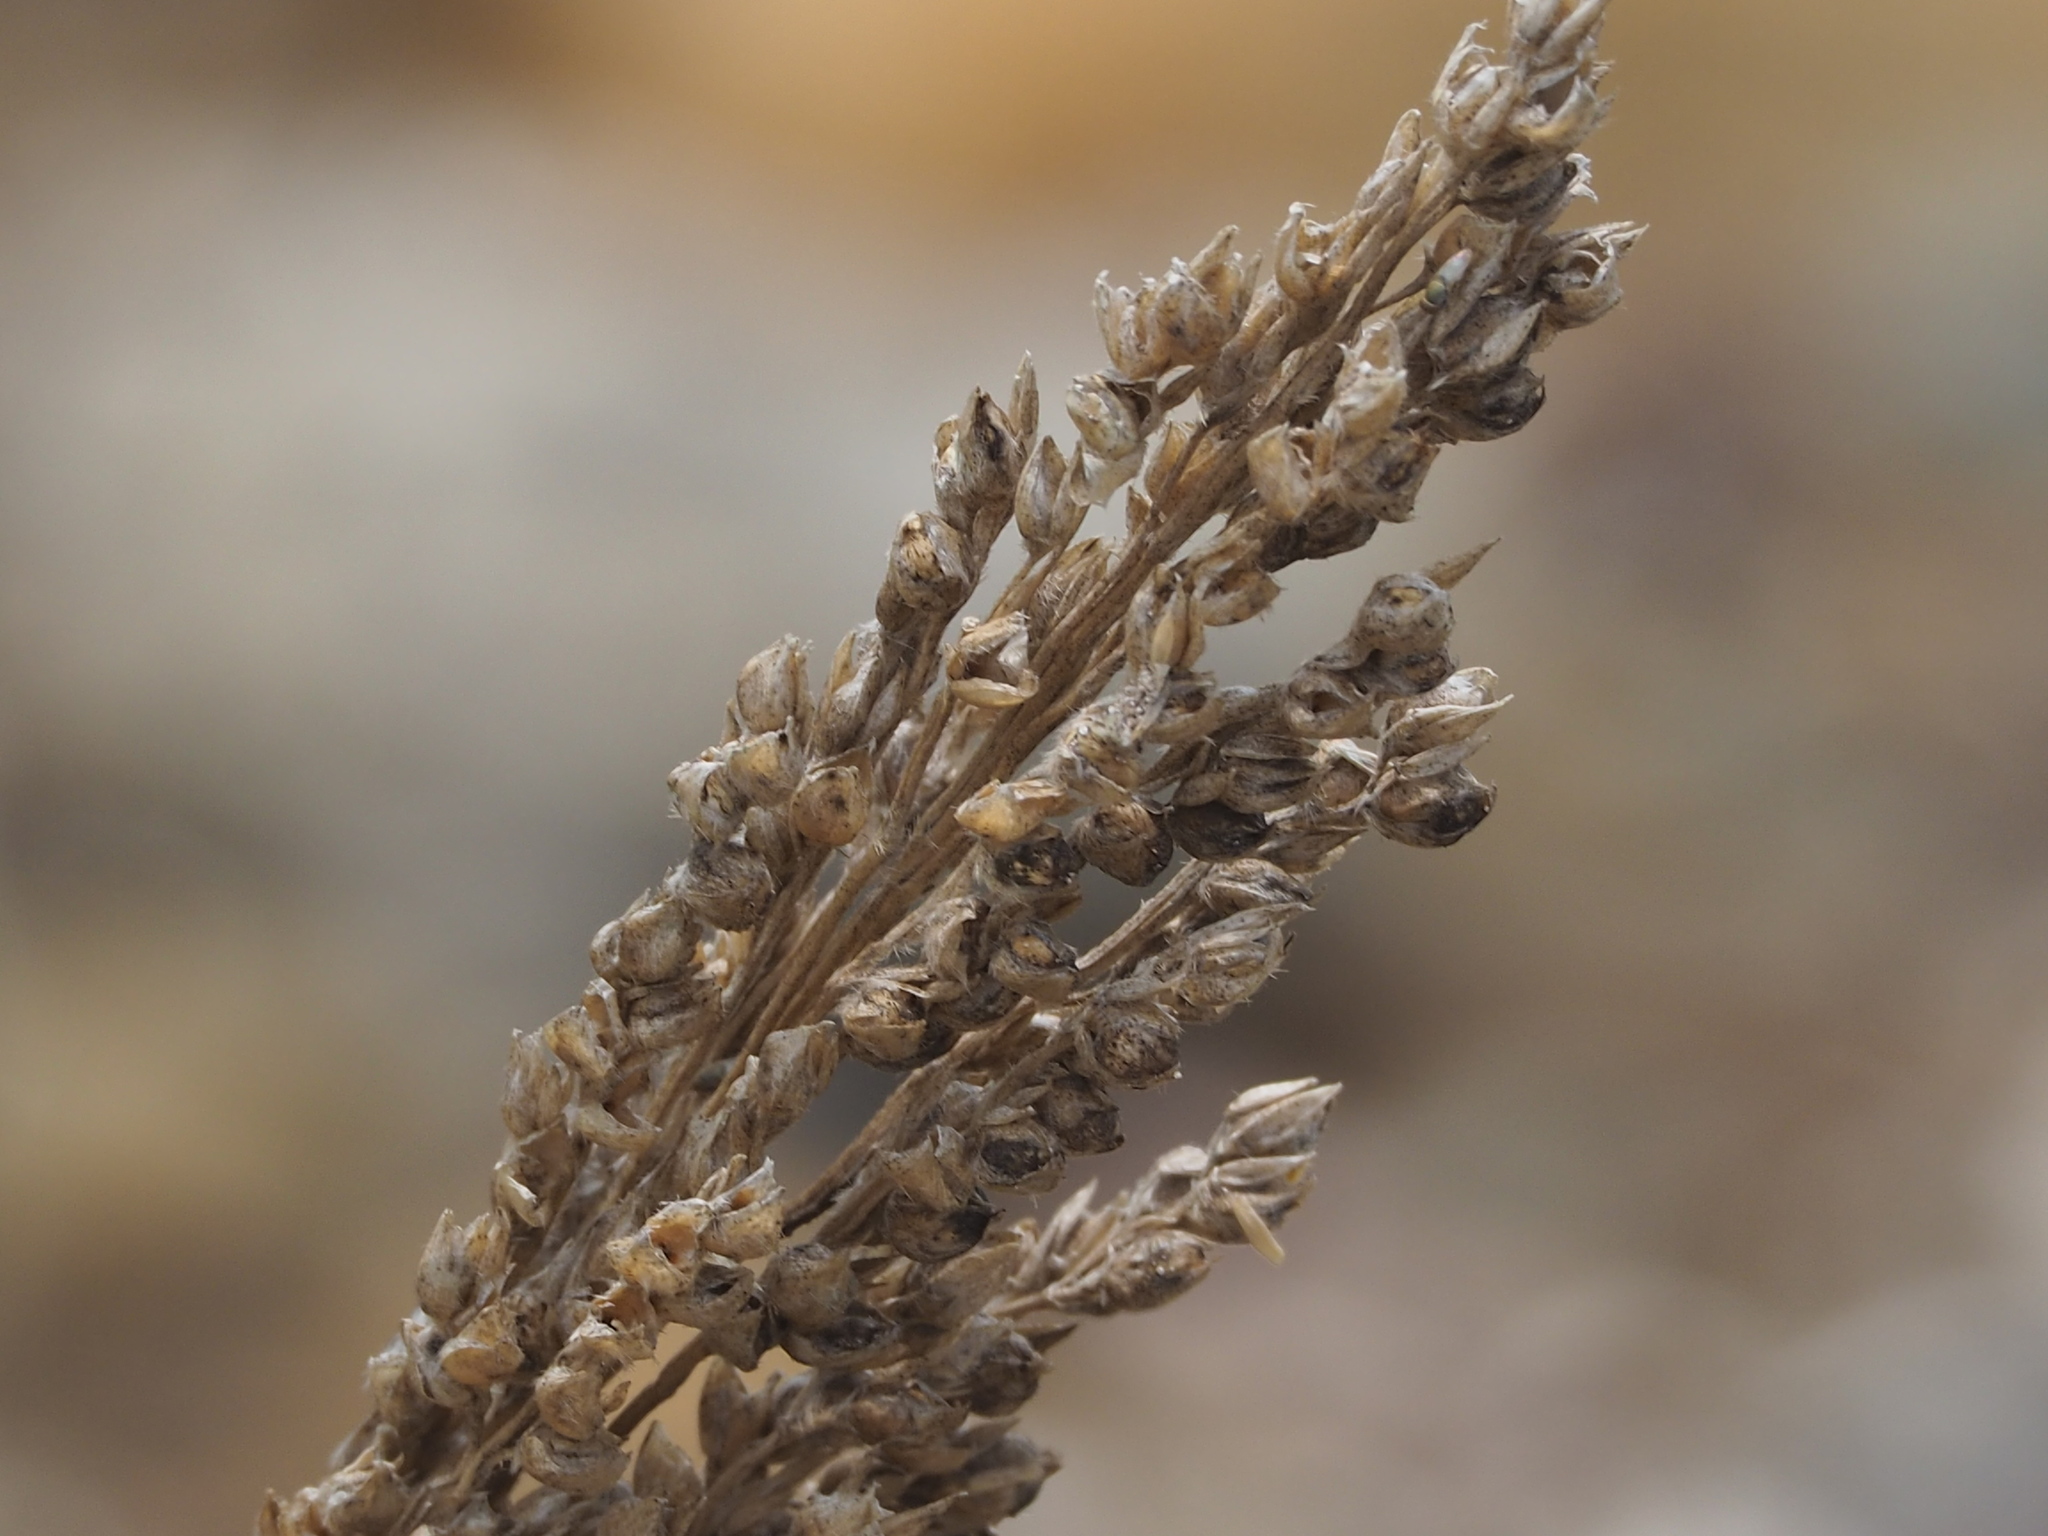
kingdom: Plantae
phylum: Tracheophyta
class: Liliopsida
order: Poales
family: Poaceae
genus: Sorghum
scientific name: Sorghum bicolor
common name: Sorghum
